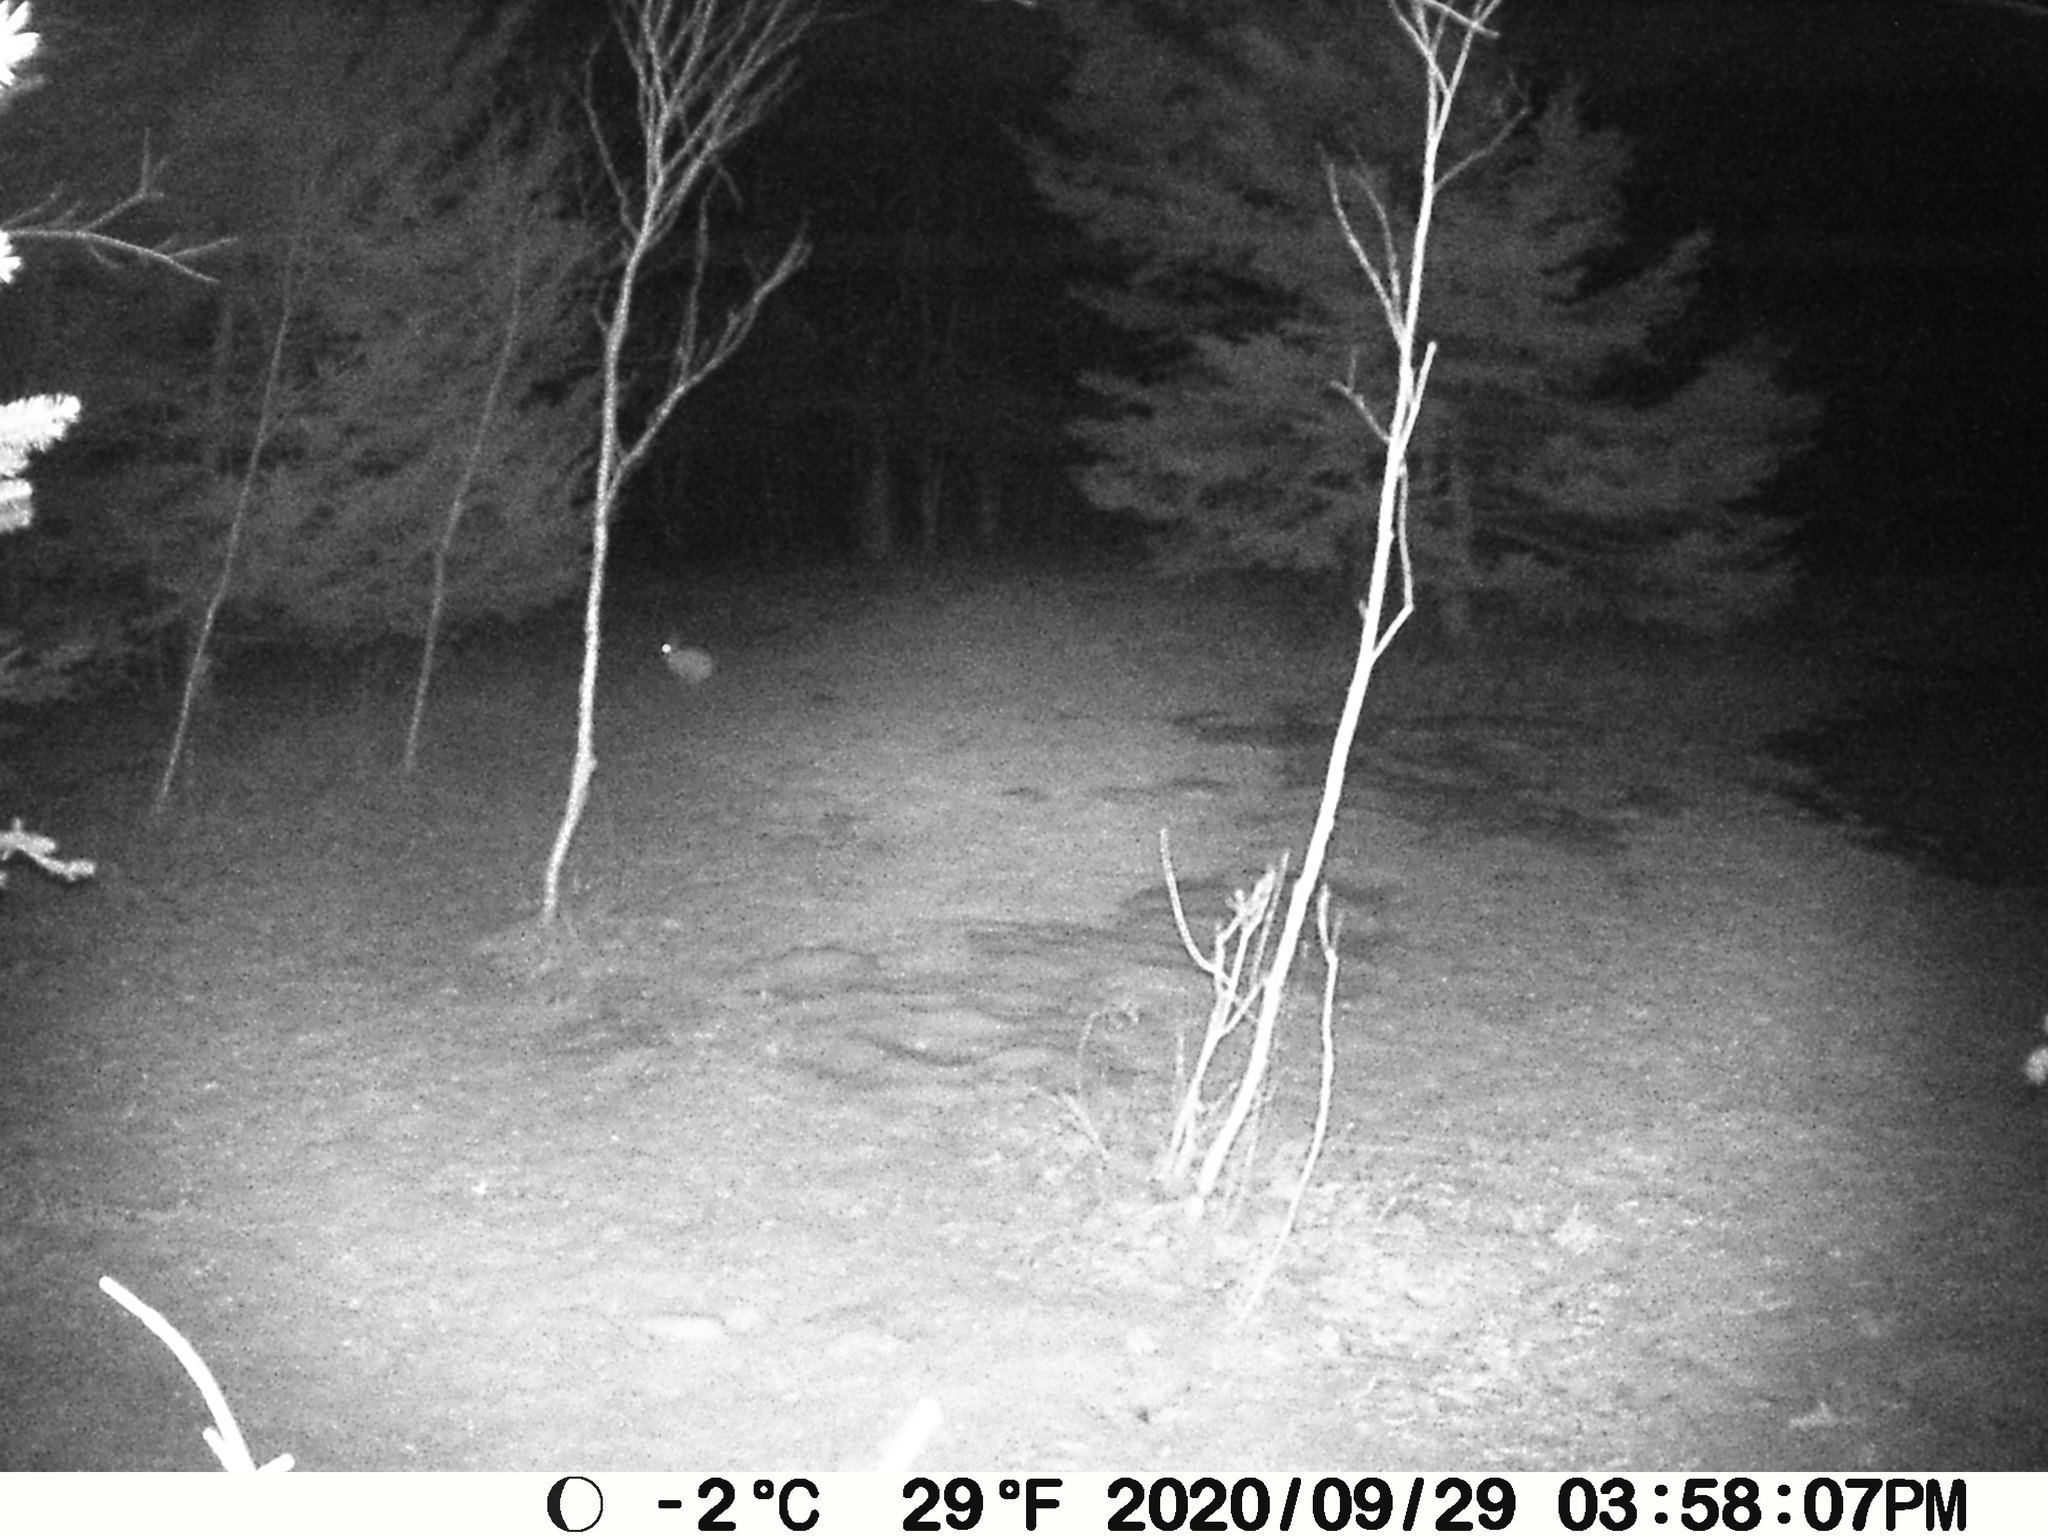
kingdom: Animalia
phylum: Chordata
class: Mammalia
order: Lagomorpha
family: Leporidae
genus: Lepus
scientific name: Lepus americanus
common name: Snowshoe hare
